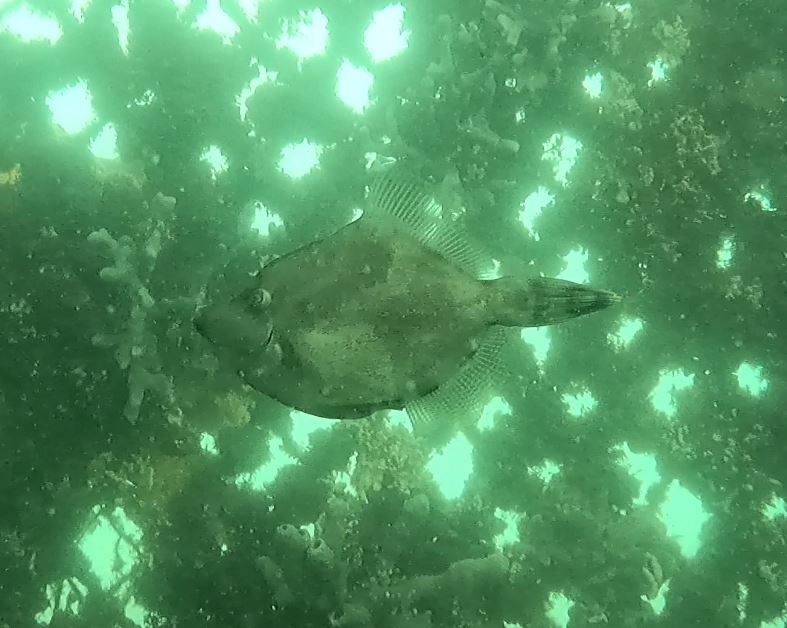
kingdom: Animalia
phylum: Chordata
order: Tetraodontiformes
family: Monacanthidae
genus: Monacanthus
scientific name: Monacanthus chinensis
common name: Centreboard leatherjacket
